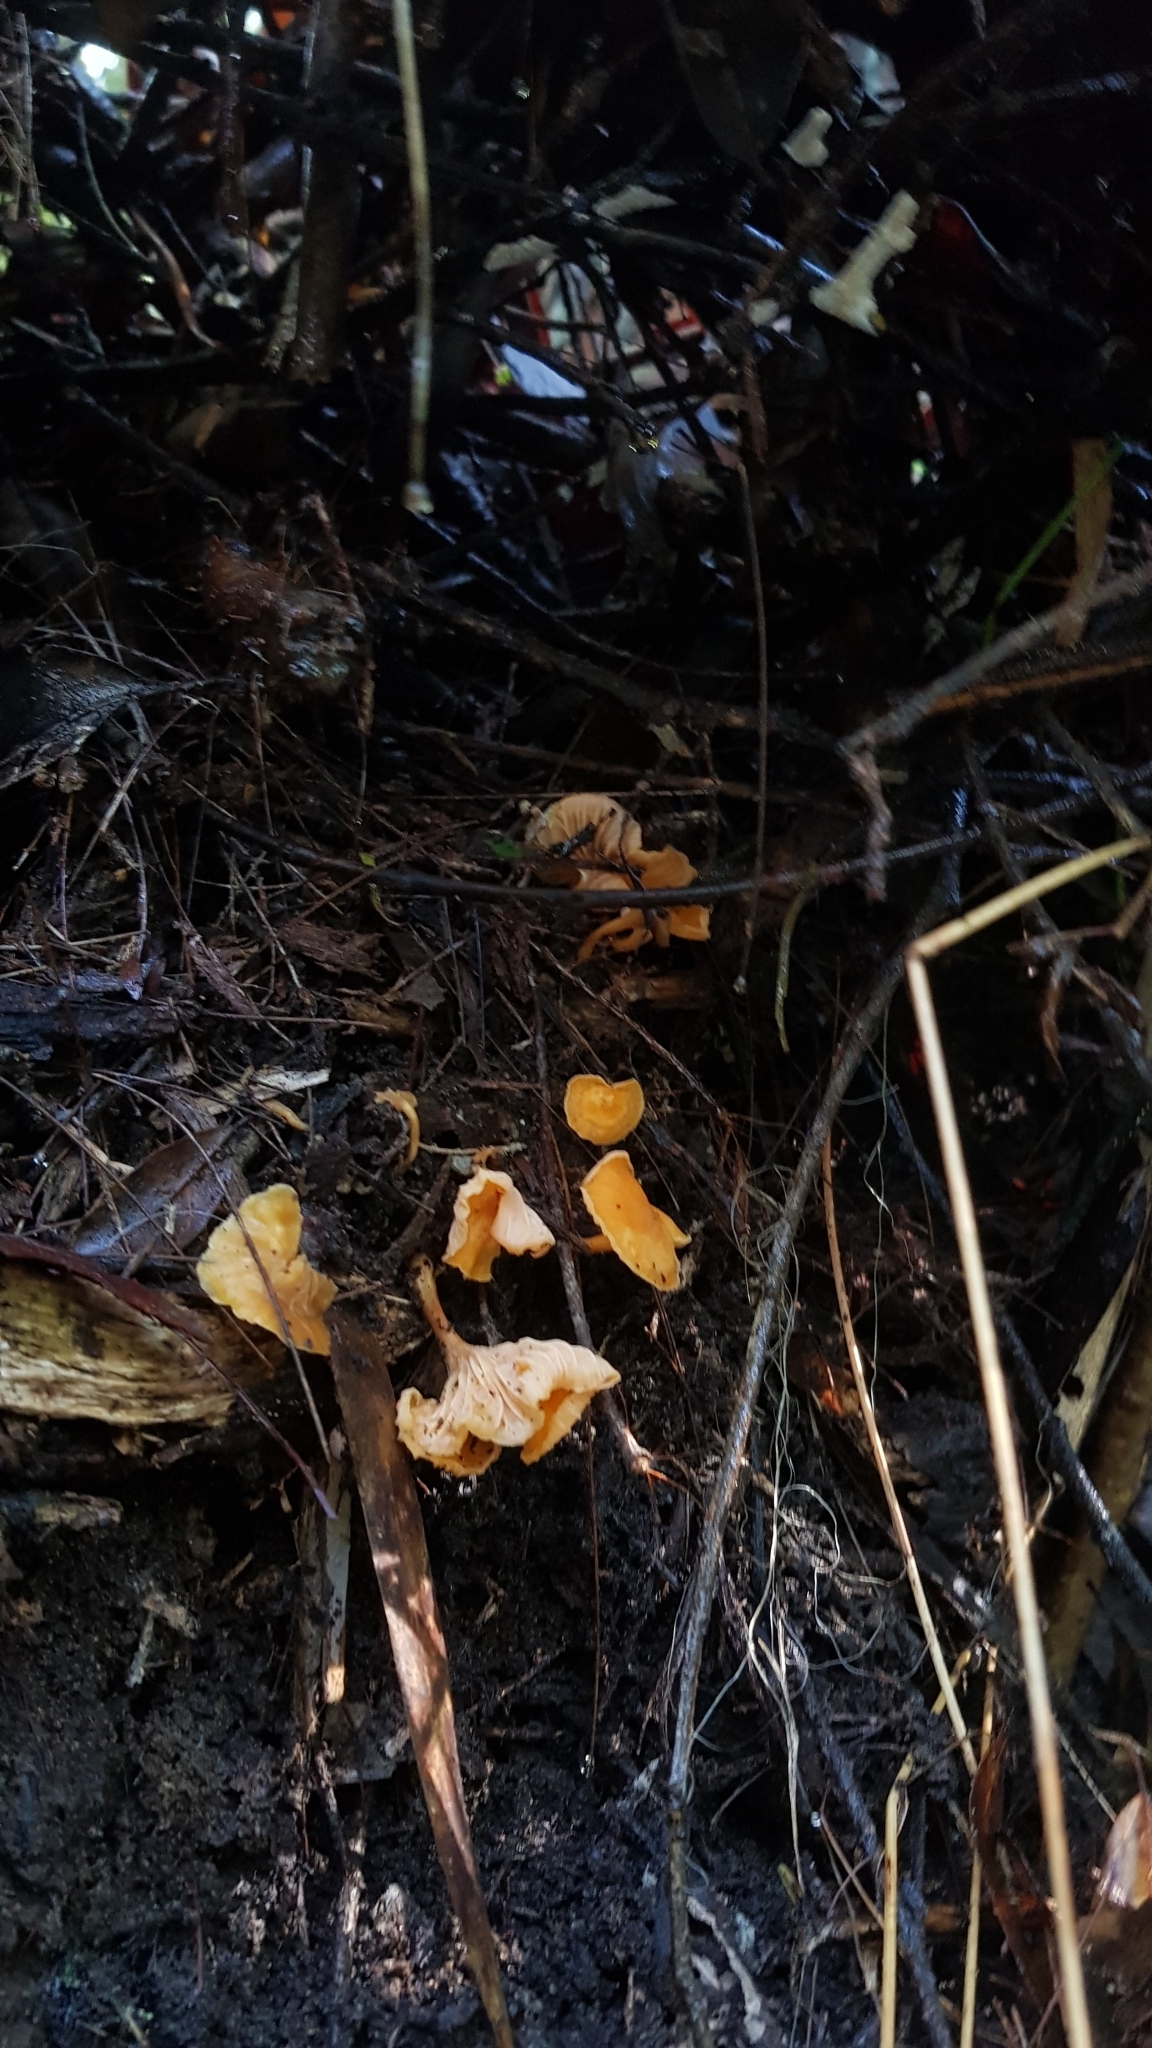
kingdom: Fungi
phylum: Basidiomycota
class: Agaricomycetes
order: Cantharellales
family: Hydnaceae
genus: Cantharellus
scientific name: Cantharellus
